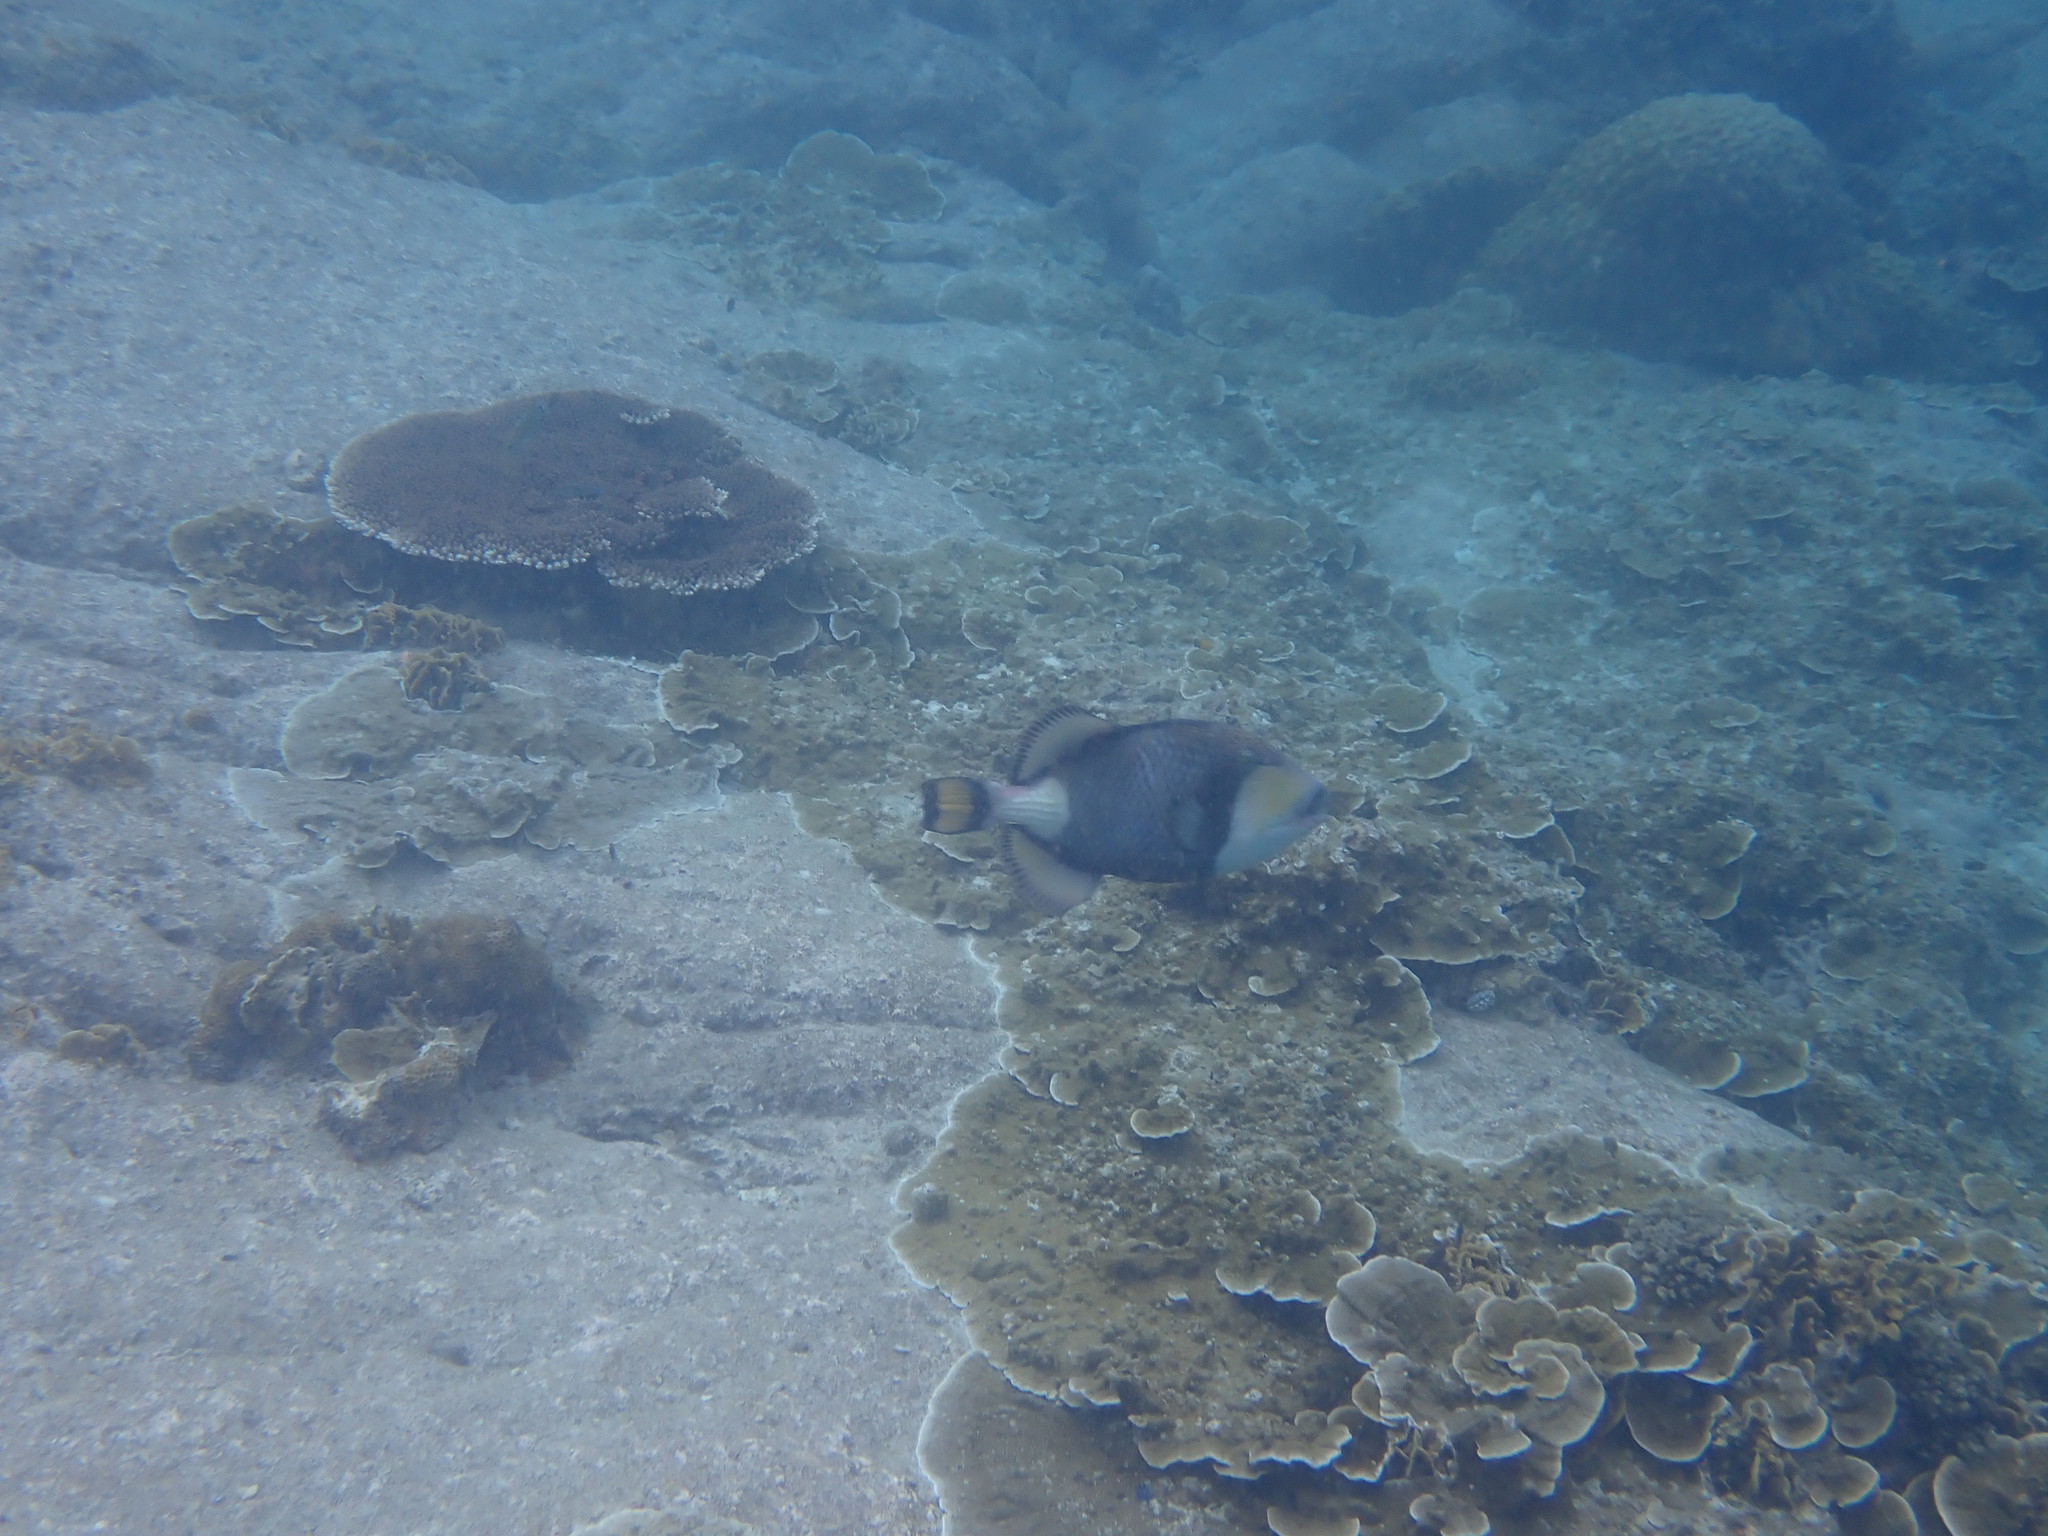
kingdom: Animalia
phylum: Chordata
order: Tetraodontiformes
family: Balistidae
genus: Balistoides
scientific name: Balistoides viridescens
